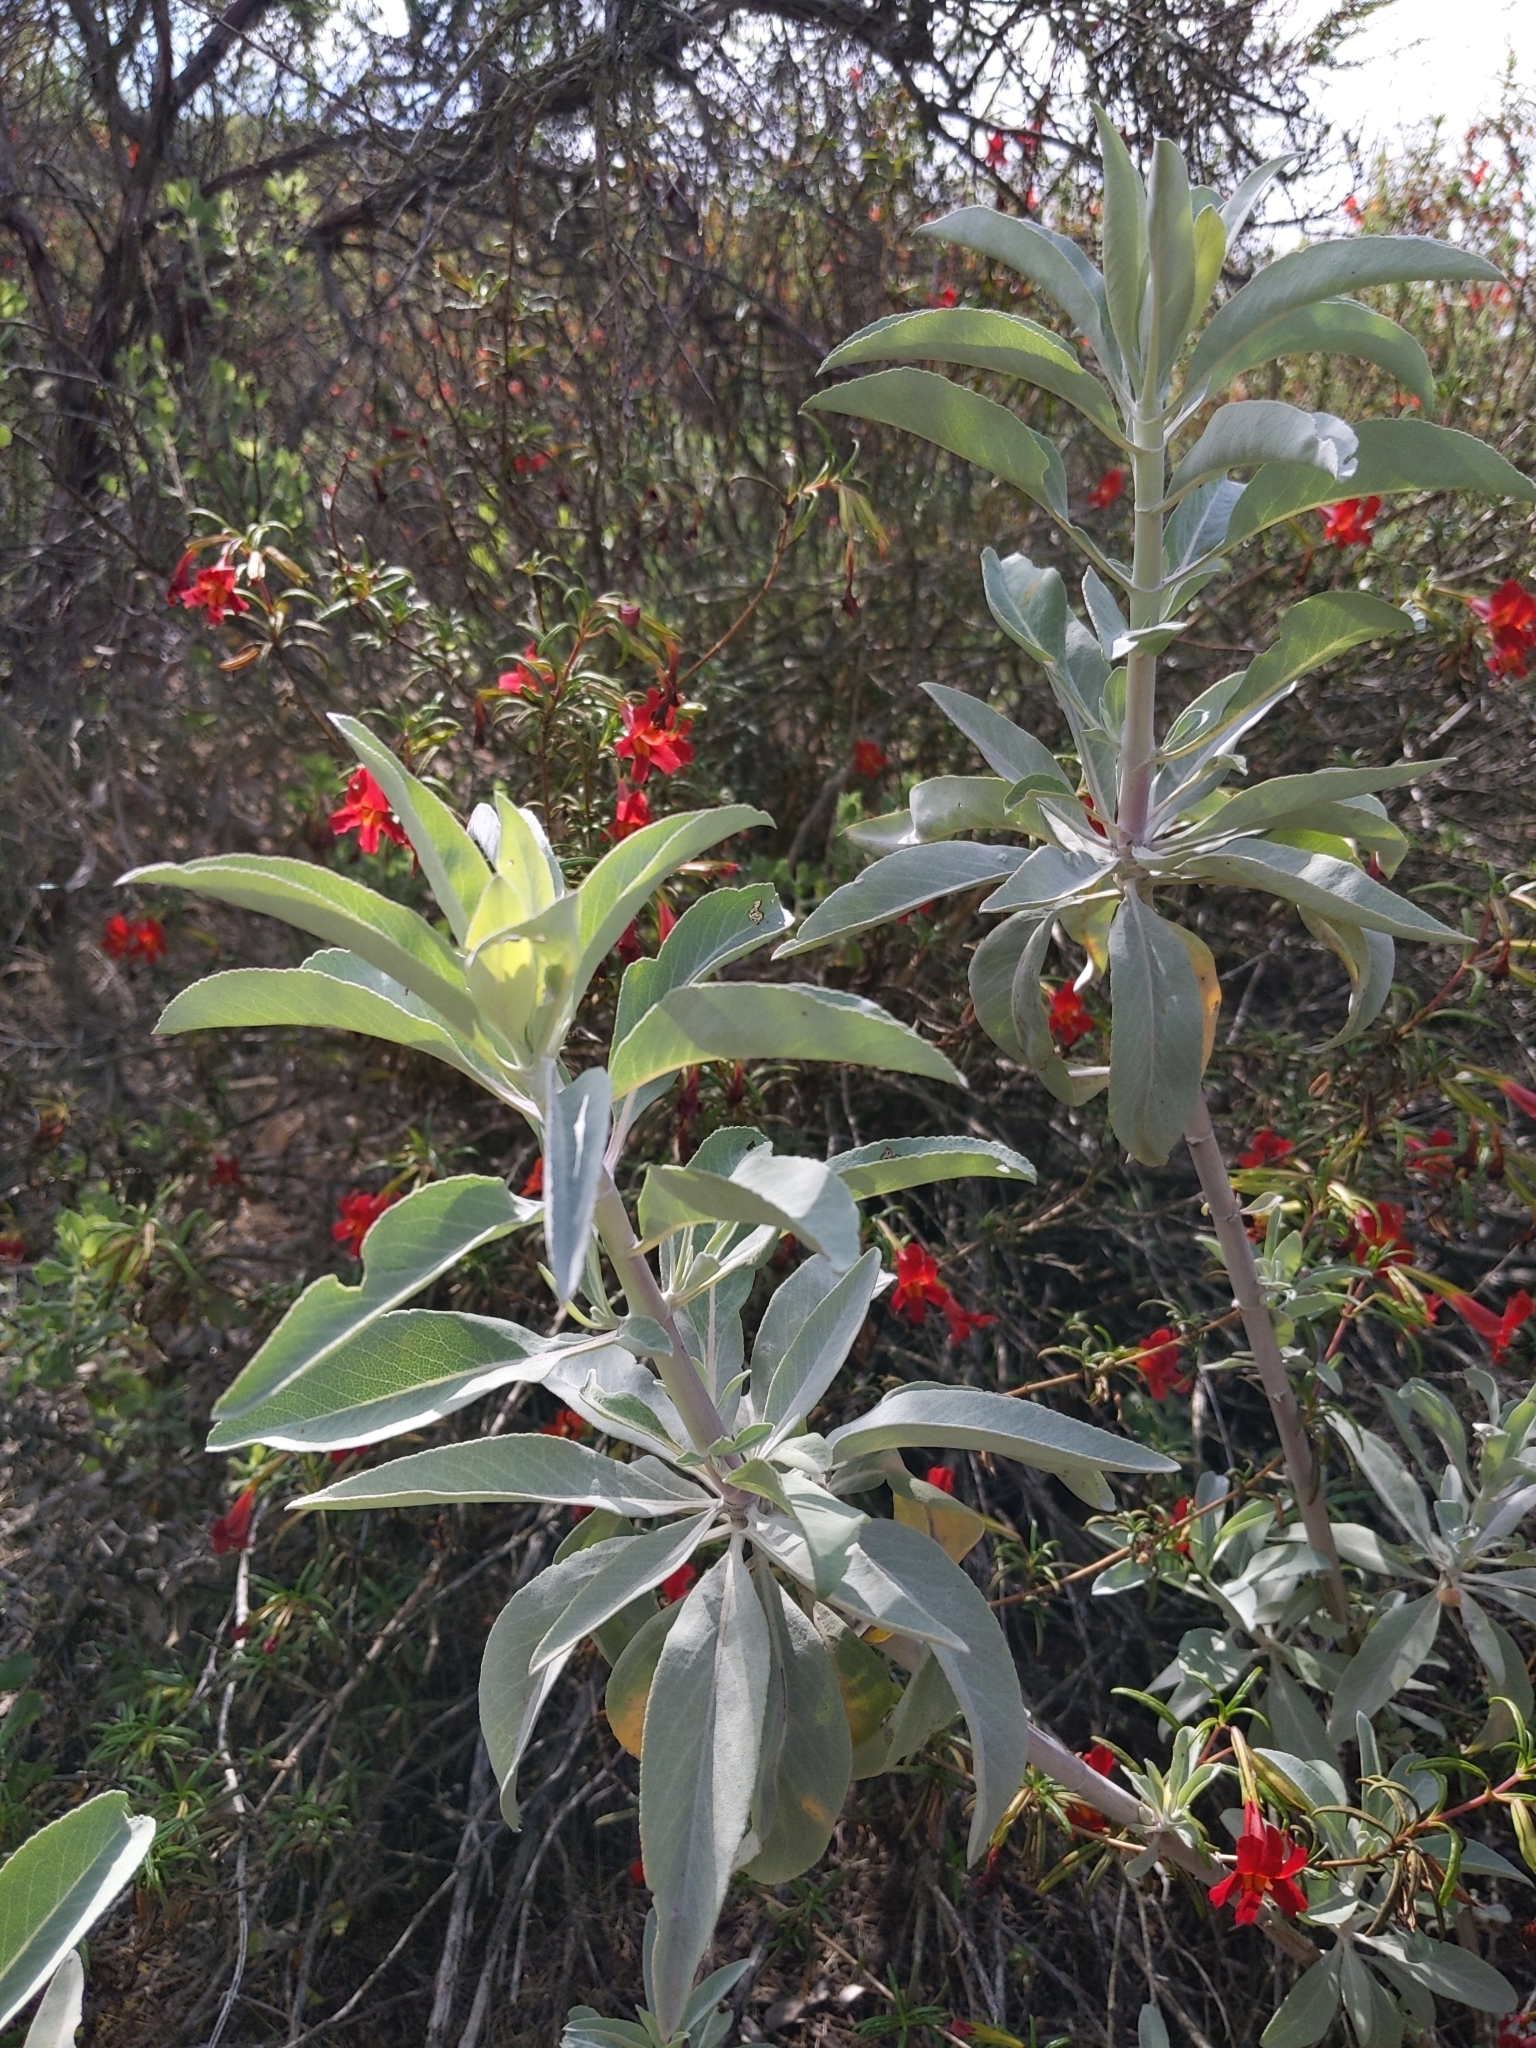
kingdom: Plantae
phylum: Tracheophyta
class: Magnoliopsida
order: Lamiales
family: Lamiaceae
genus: Salvia
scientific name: Salvia apiana
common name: White sage
